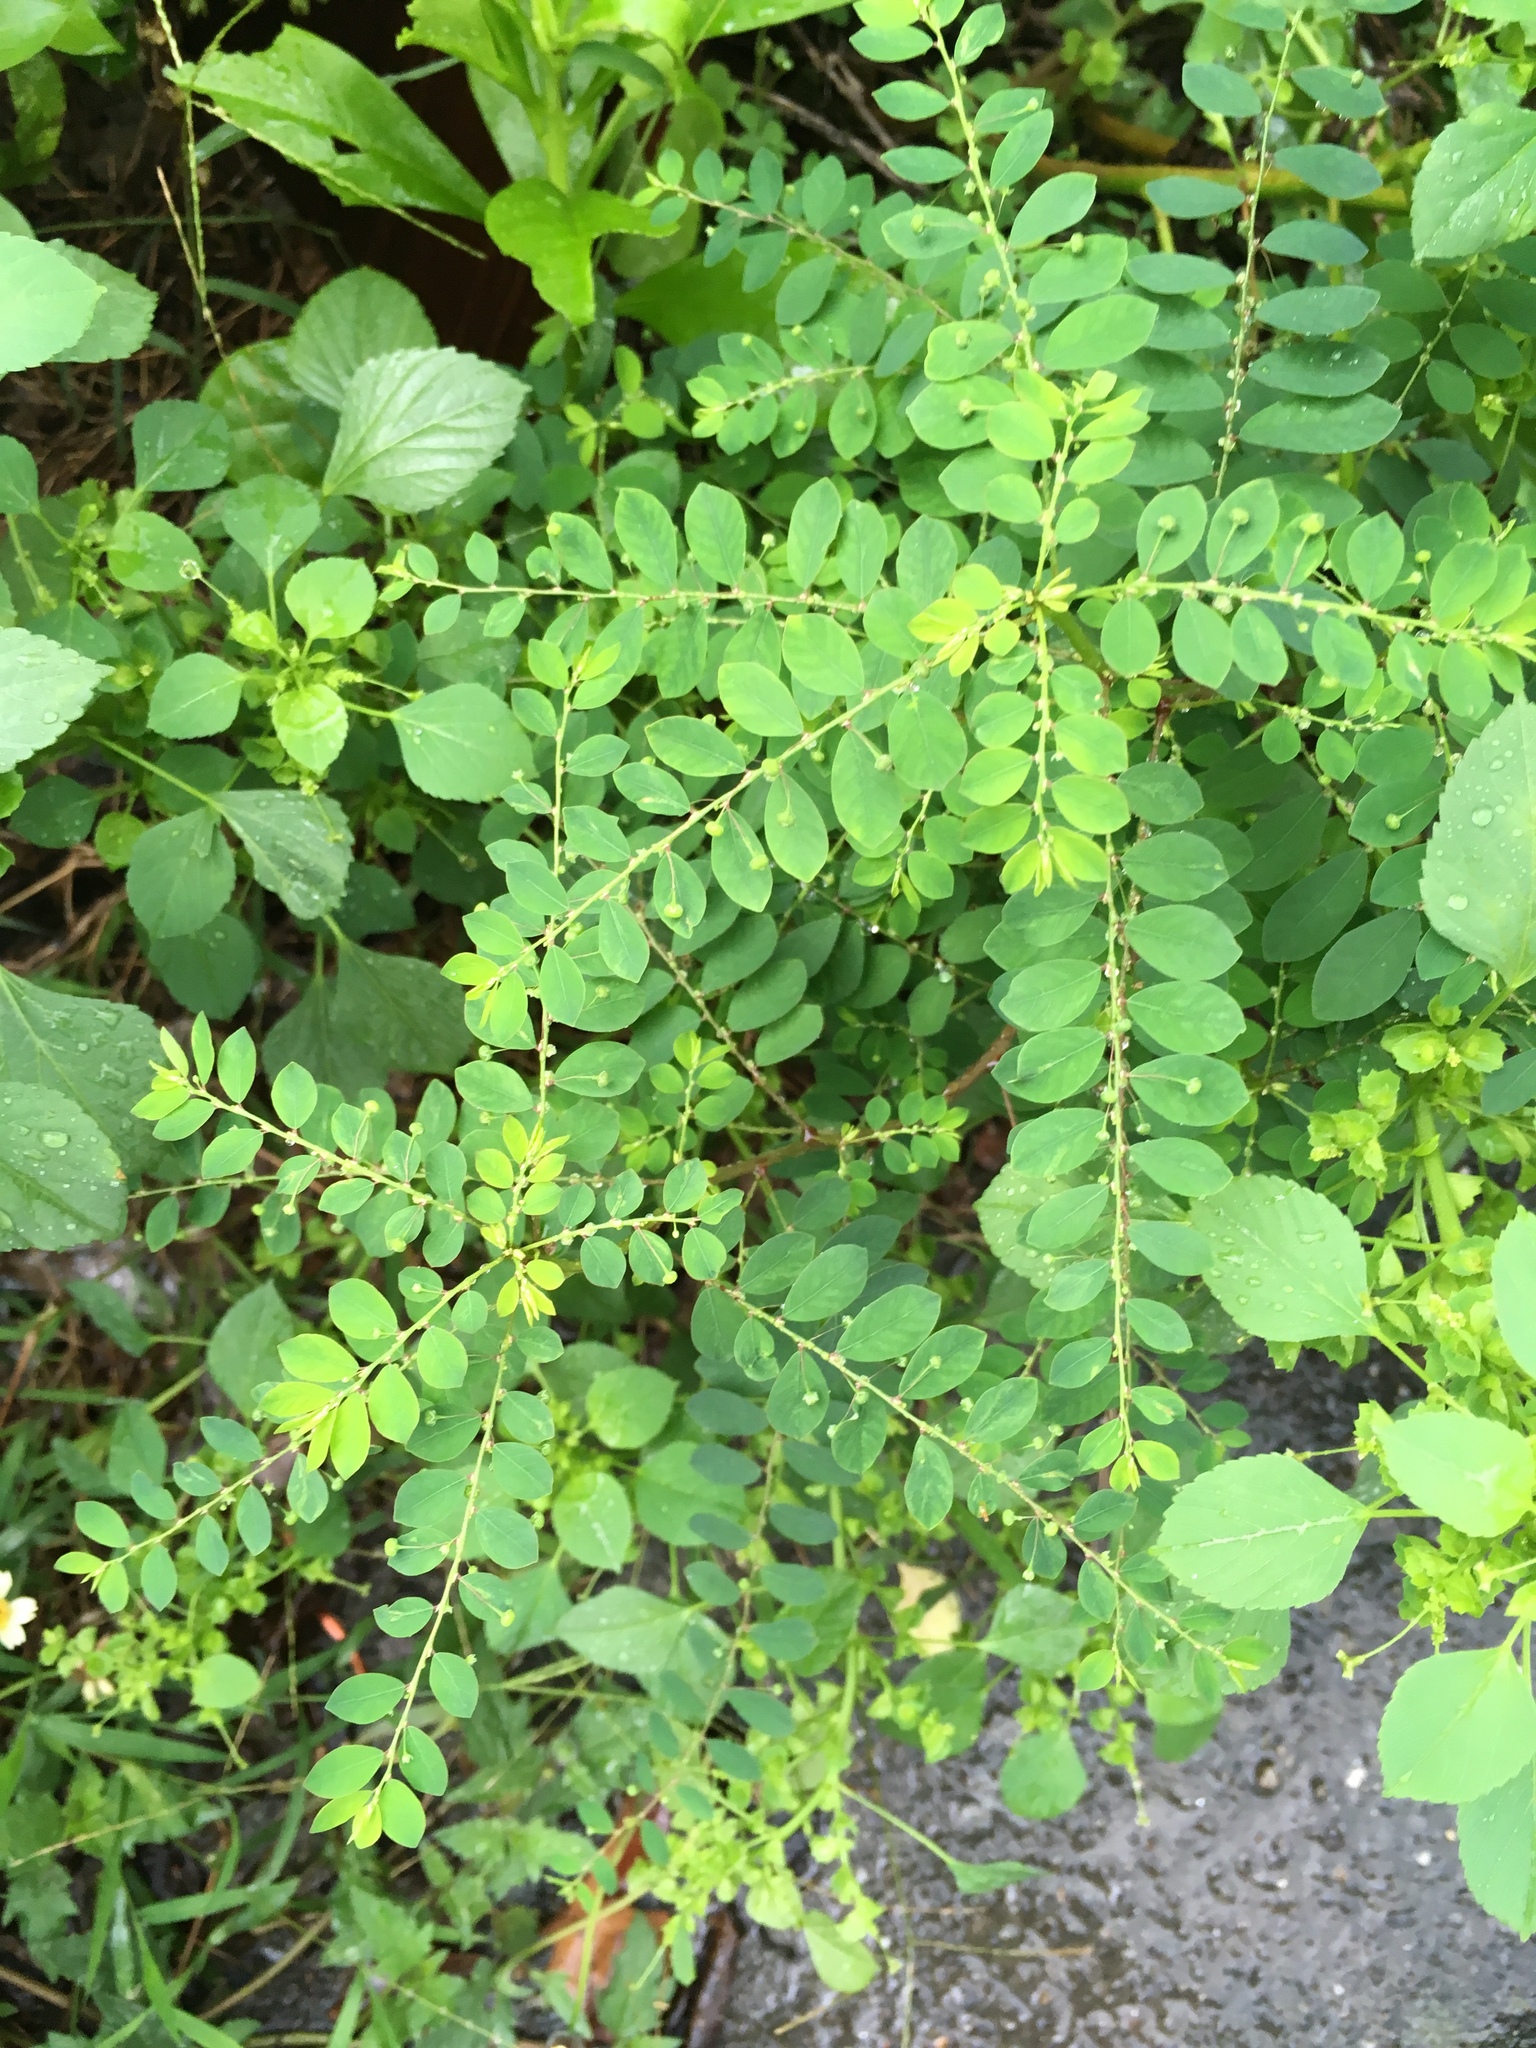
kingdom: Plantae
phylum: Tracheophyta
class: Magnoliopsida
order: Malpighiales
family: Phyllanthaceae
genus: Phyllanthus
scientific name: Phyllanthus tenellus
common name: Mascarene island leaf-flower
